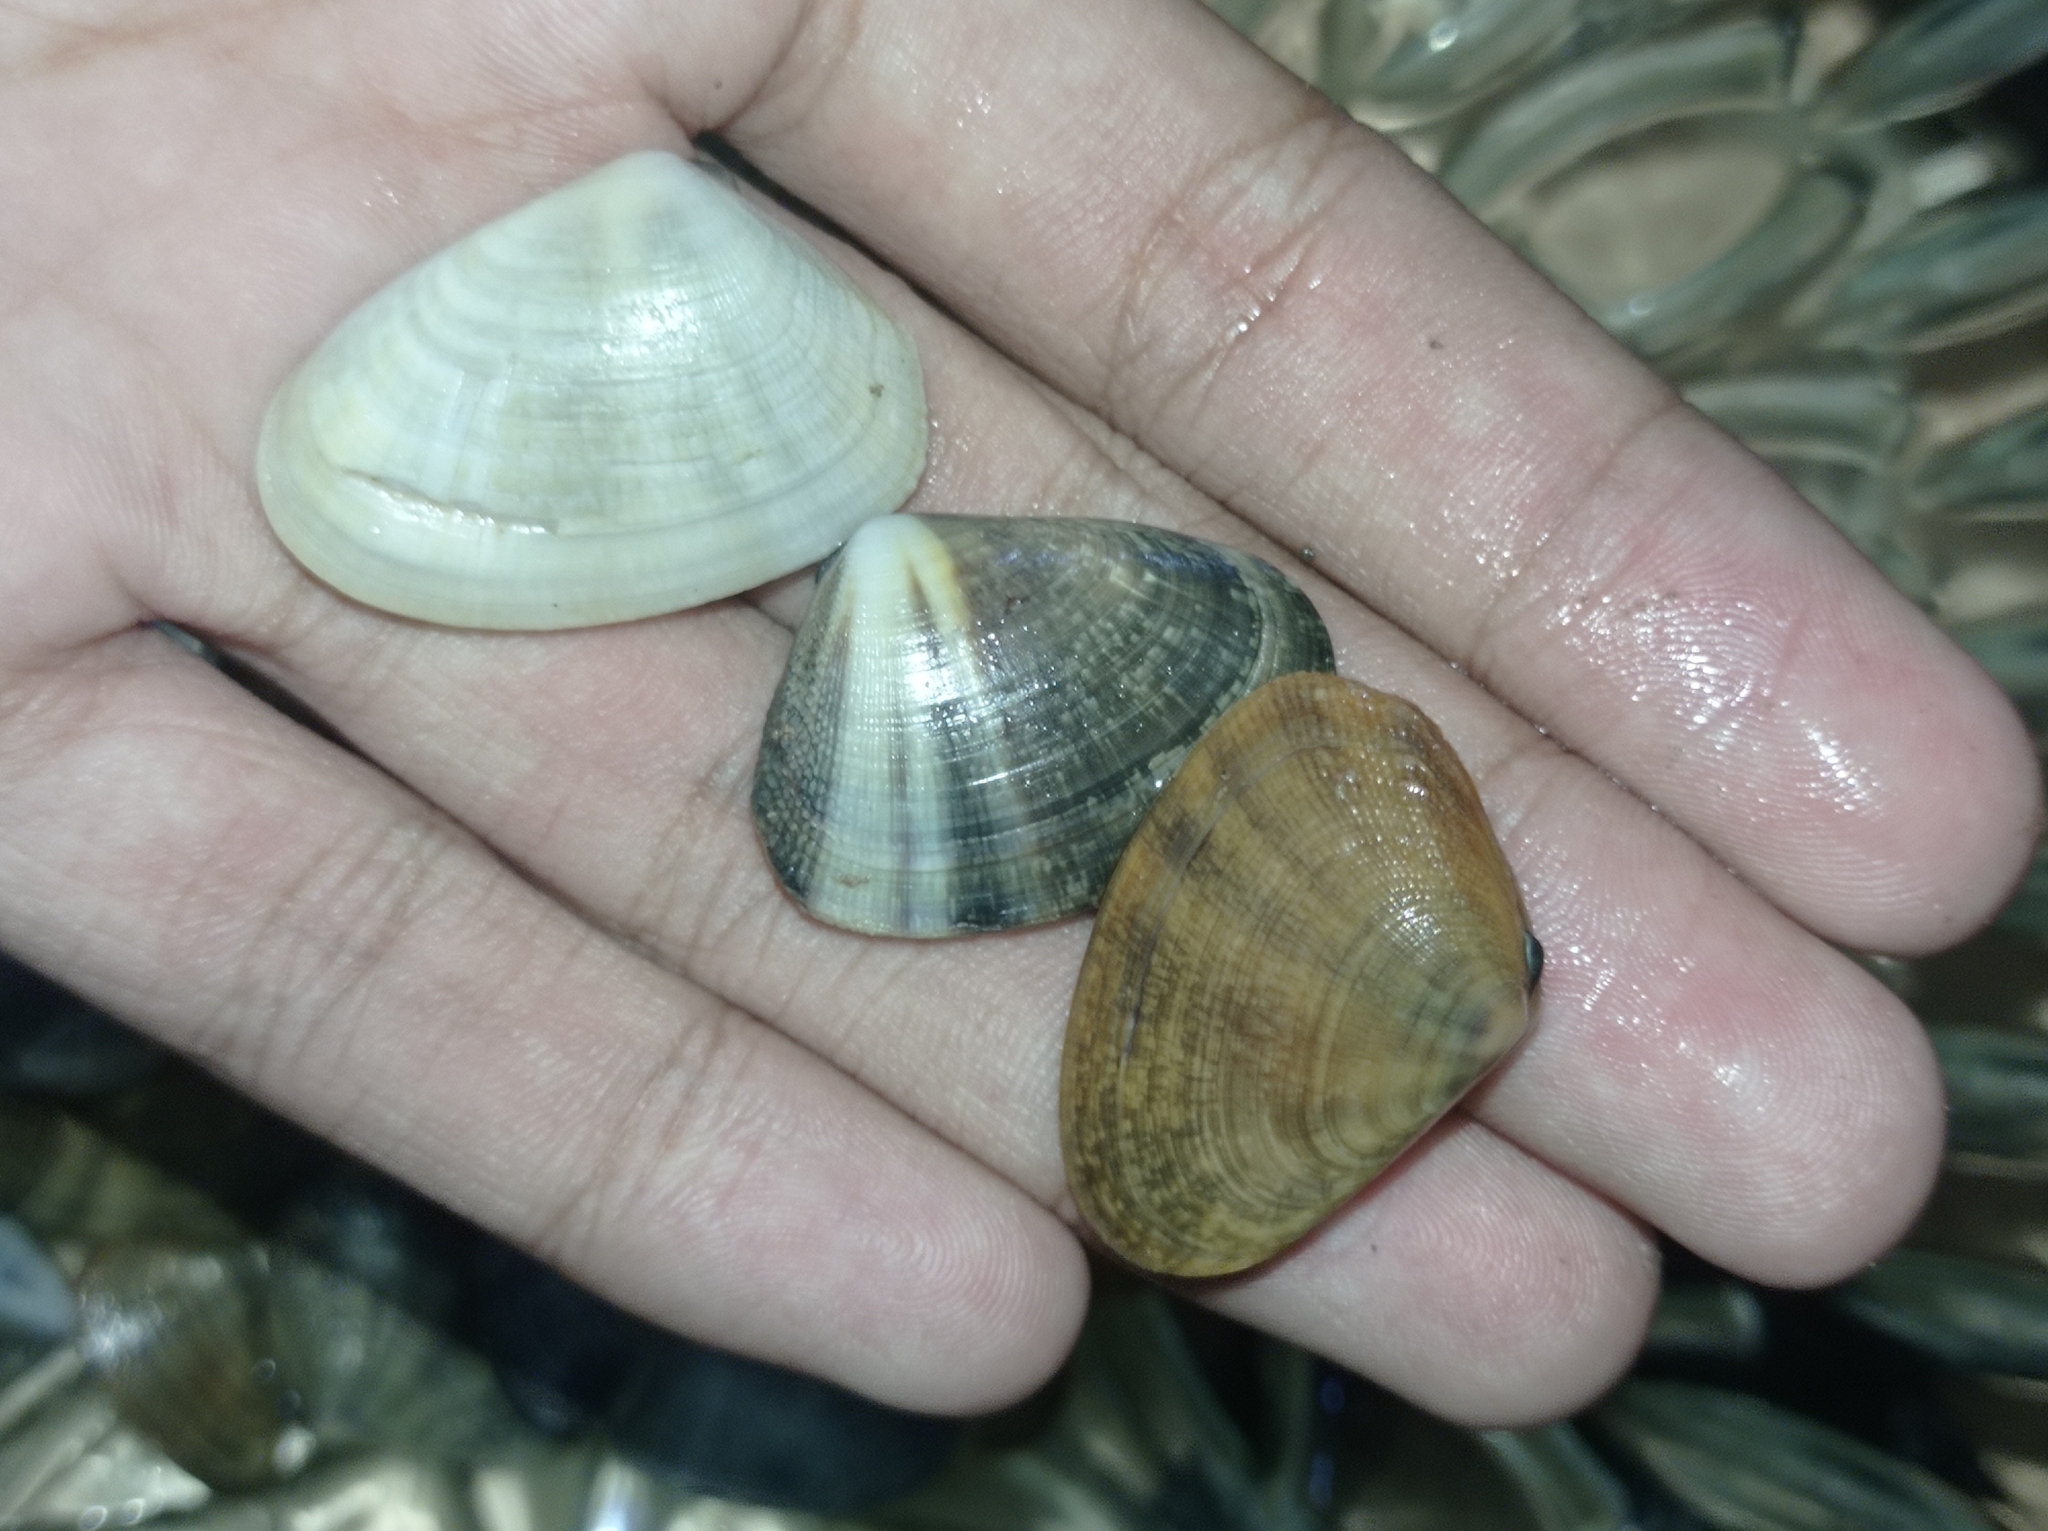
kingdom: Animalia
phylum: Mollusca
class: Bivalvia
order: Cardiida
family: Donacidae
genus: Latona
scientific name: Latona cuneata
